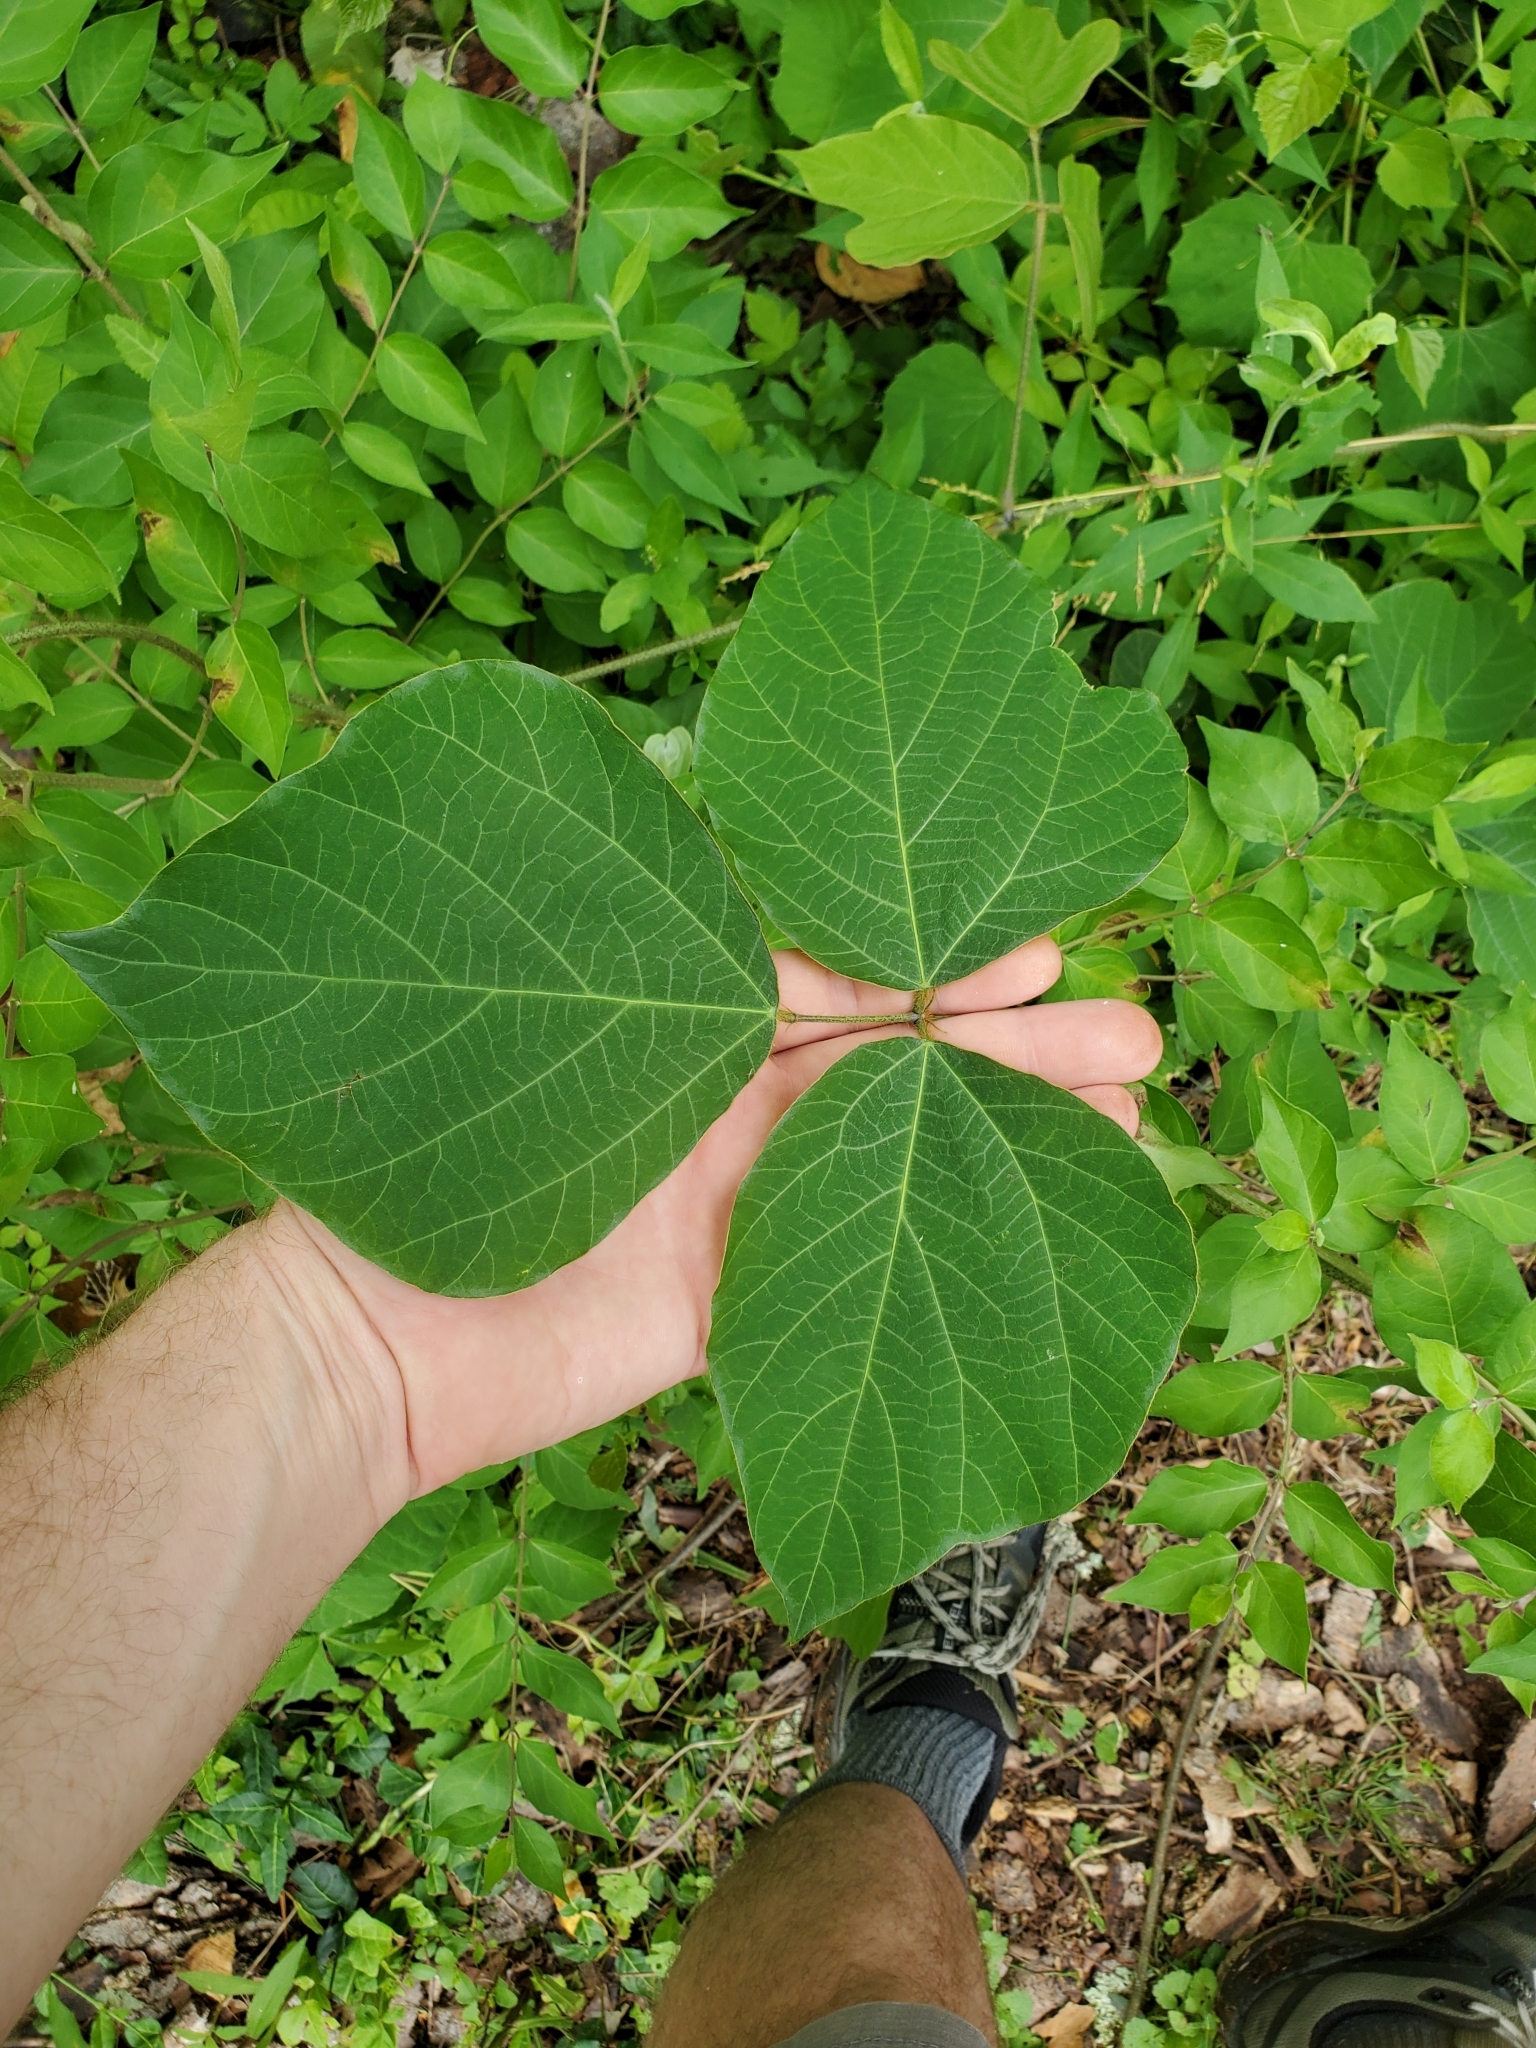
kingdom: Plantae
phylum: Tracheophyta
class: Magnoliopsida
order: Fabales
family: Fabaceae
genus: Pueraria
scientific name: Pueraria montana
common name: Kudzu
